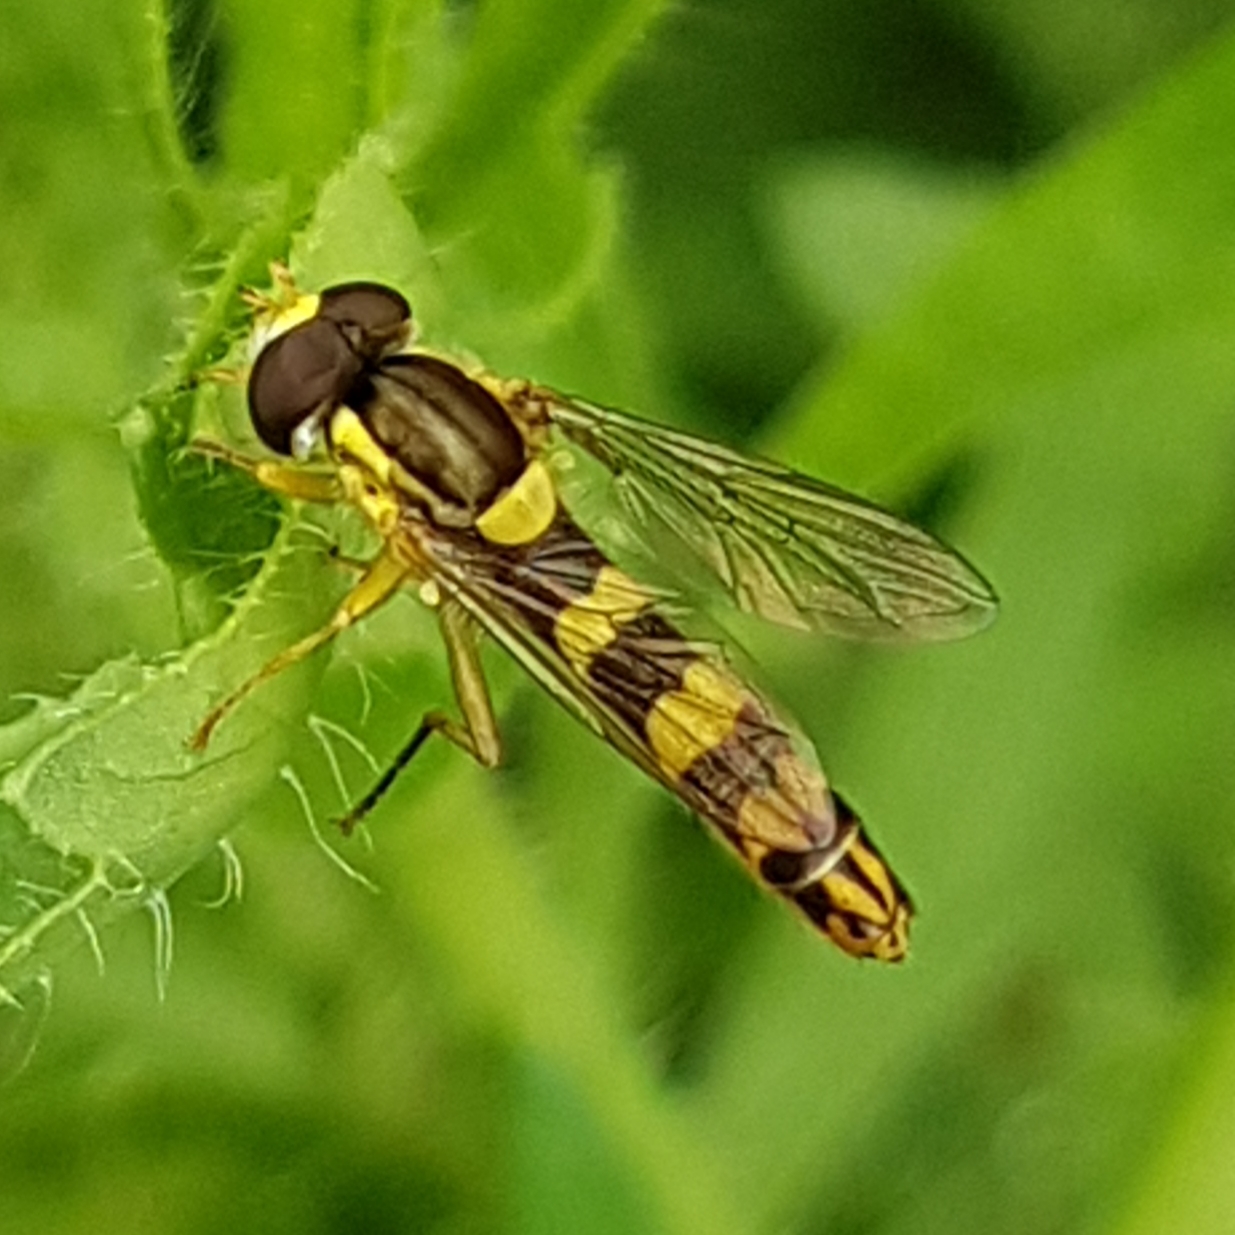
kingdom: Animalia
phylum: Arthropoda
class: Insecta
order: Diptera
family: Syrphidae
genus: Sphaerophoria
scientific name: Sphaerophoria scripta
